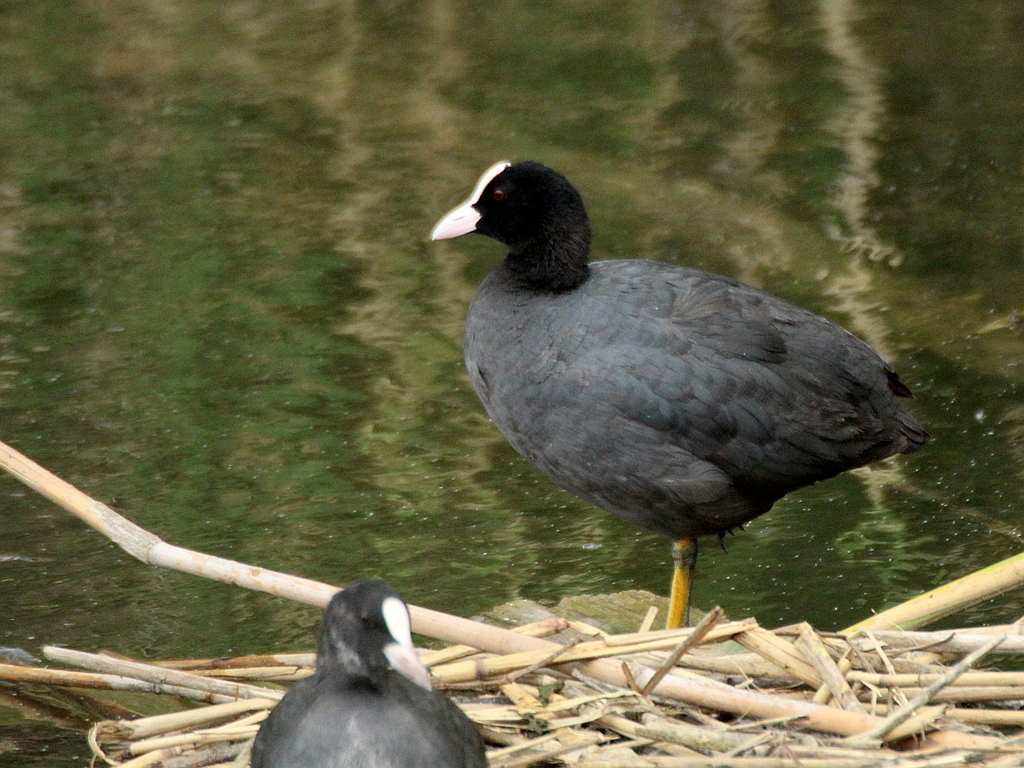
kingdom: Animalia
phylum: Chordata
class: Aves
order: Gruiformes
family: Rallidae
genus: Fulica
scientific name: Fulica atra
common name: Eurasian coot
